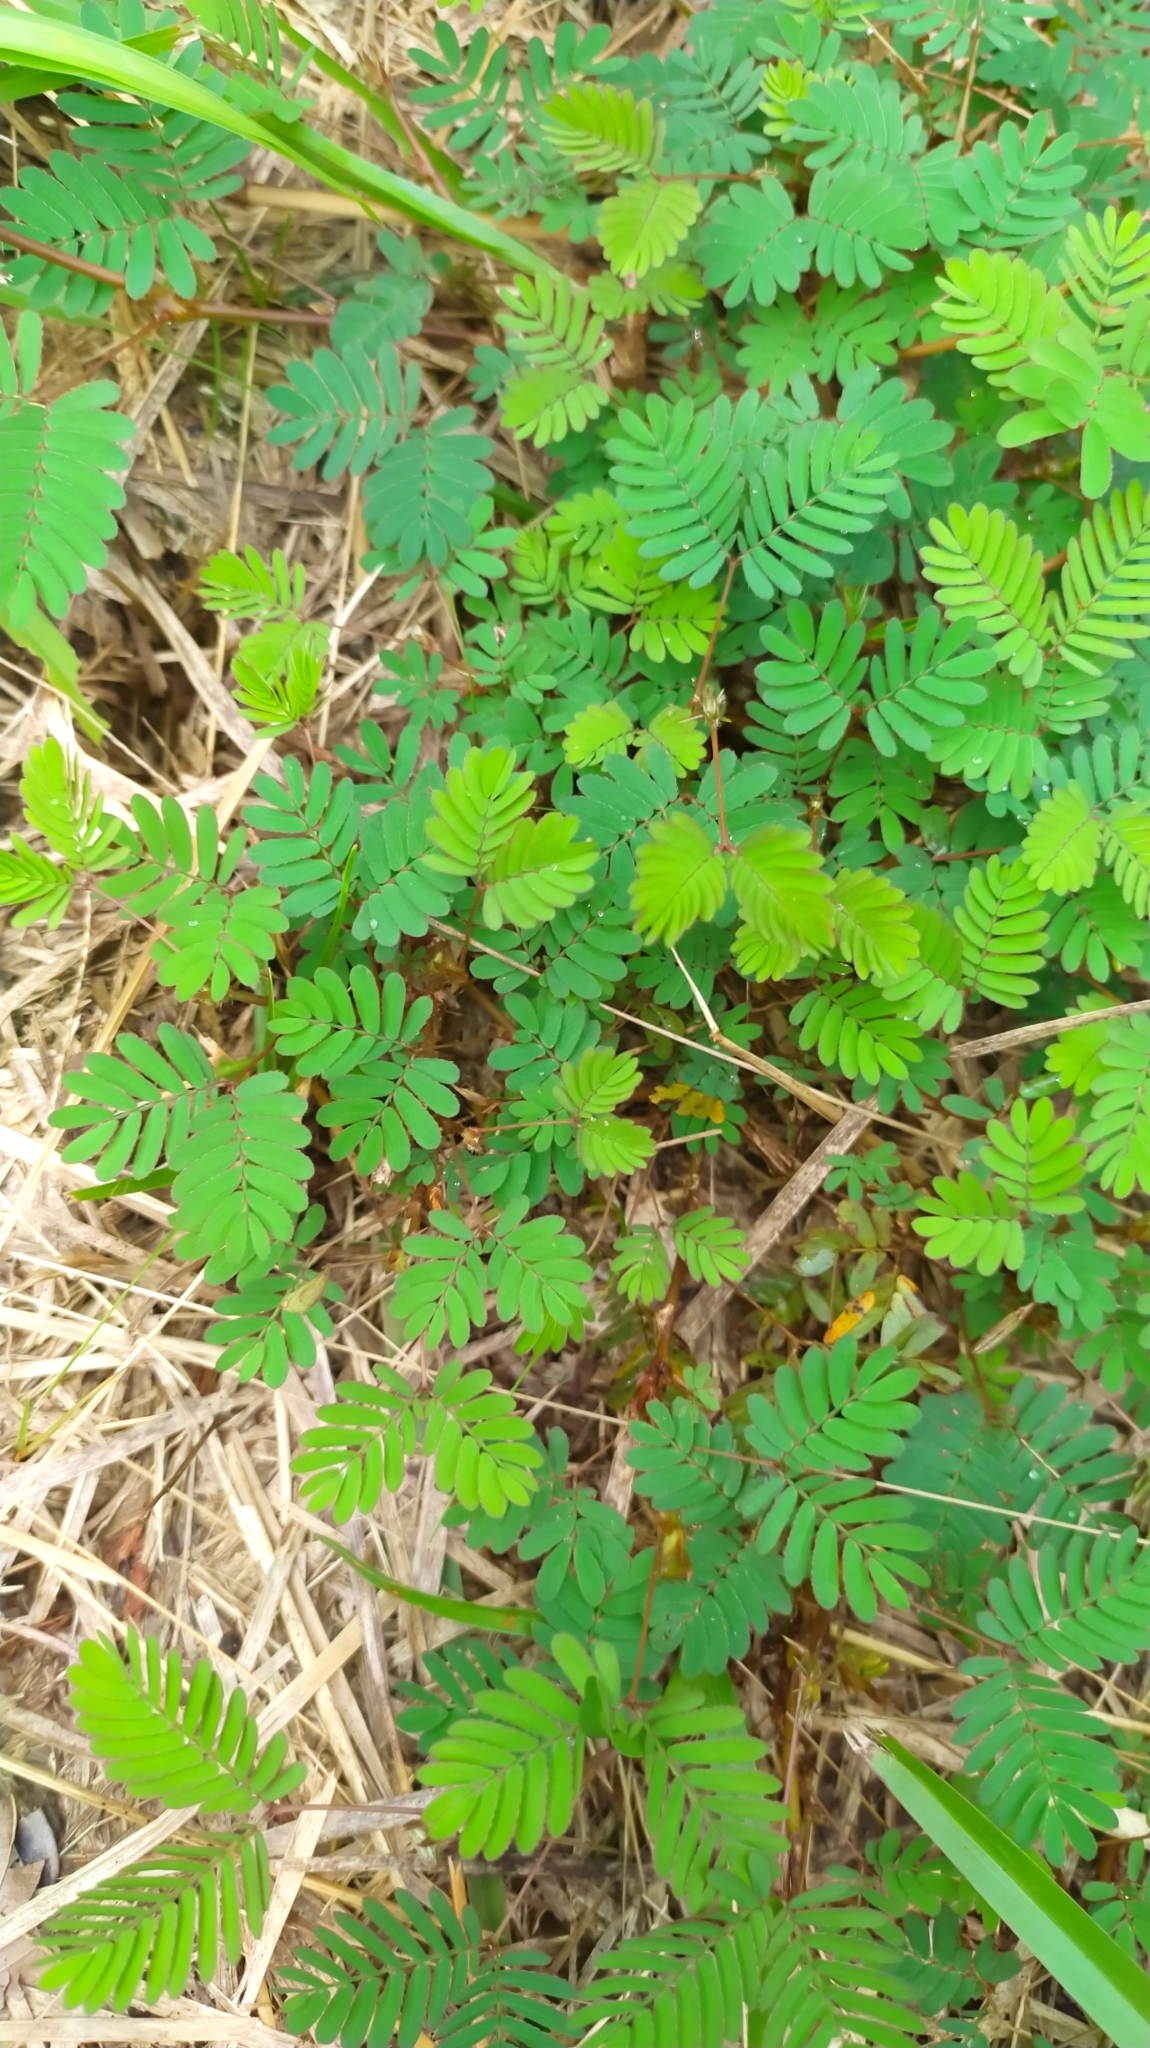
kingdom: Plantae
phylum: Tracheophyta
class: Magnoliopsida
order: Fabales
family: Fabaceae
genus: Mimosa
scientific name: Mimosa pudica
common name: Sensitive plant
